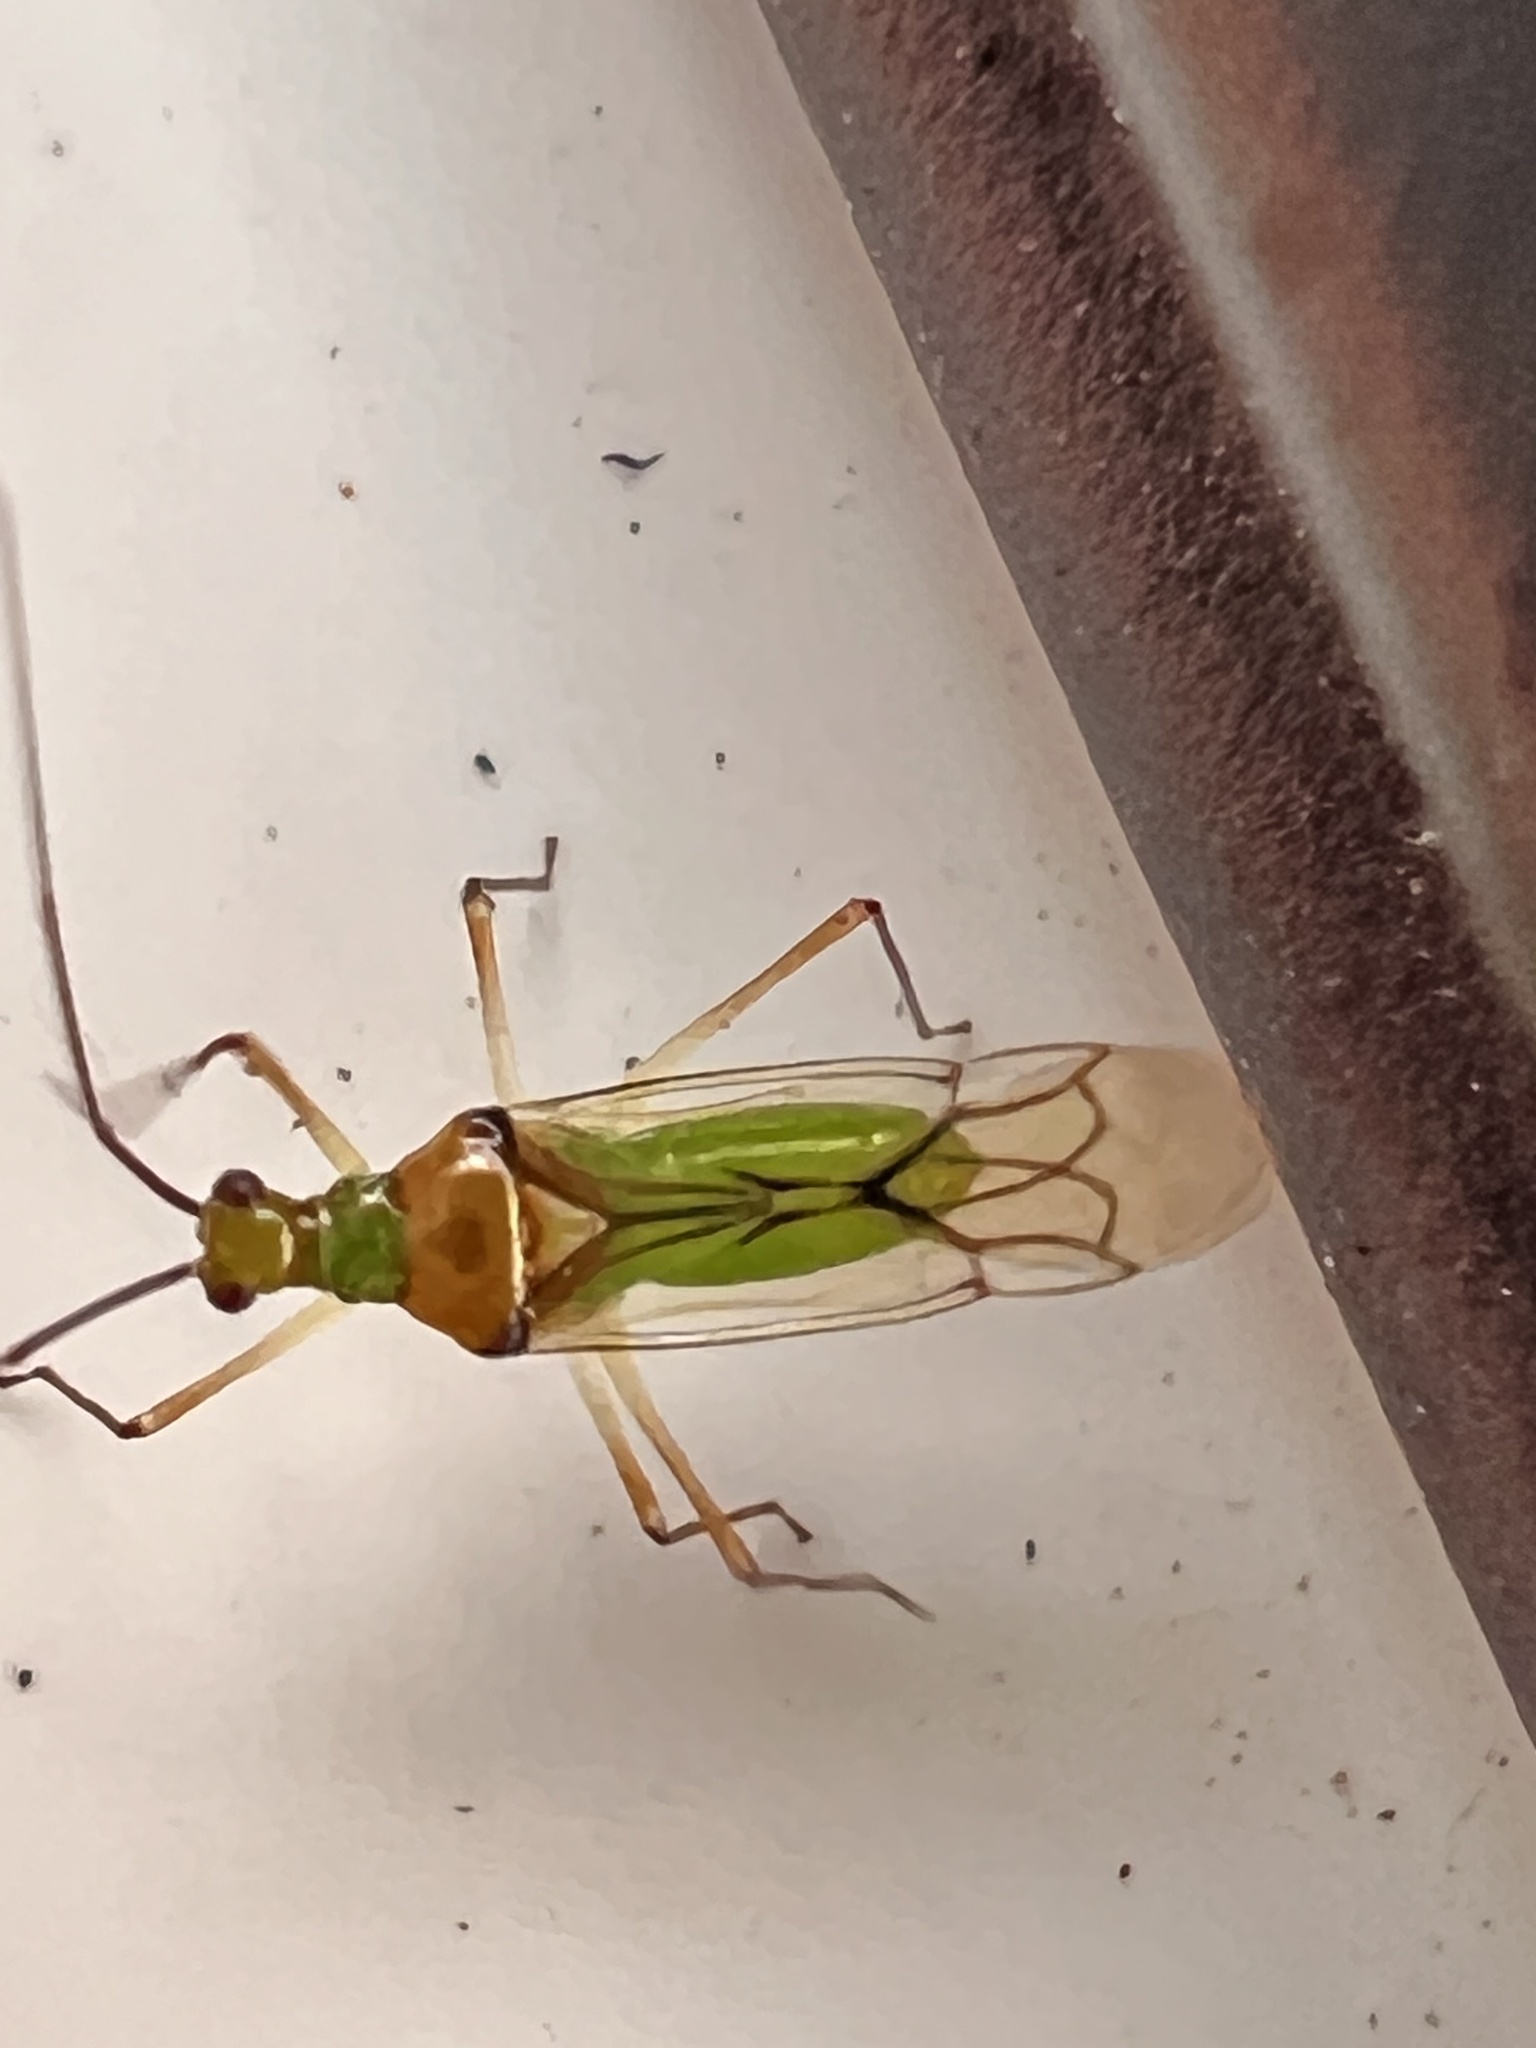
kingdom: Animalia
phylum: Arthropoda
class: Insecta
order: Hemiptera
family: Miridae
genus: Felisacus
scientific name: Felisacus elegantulus
